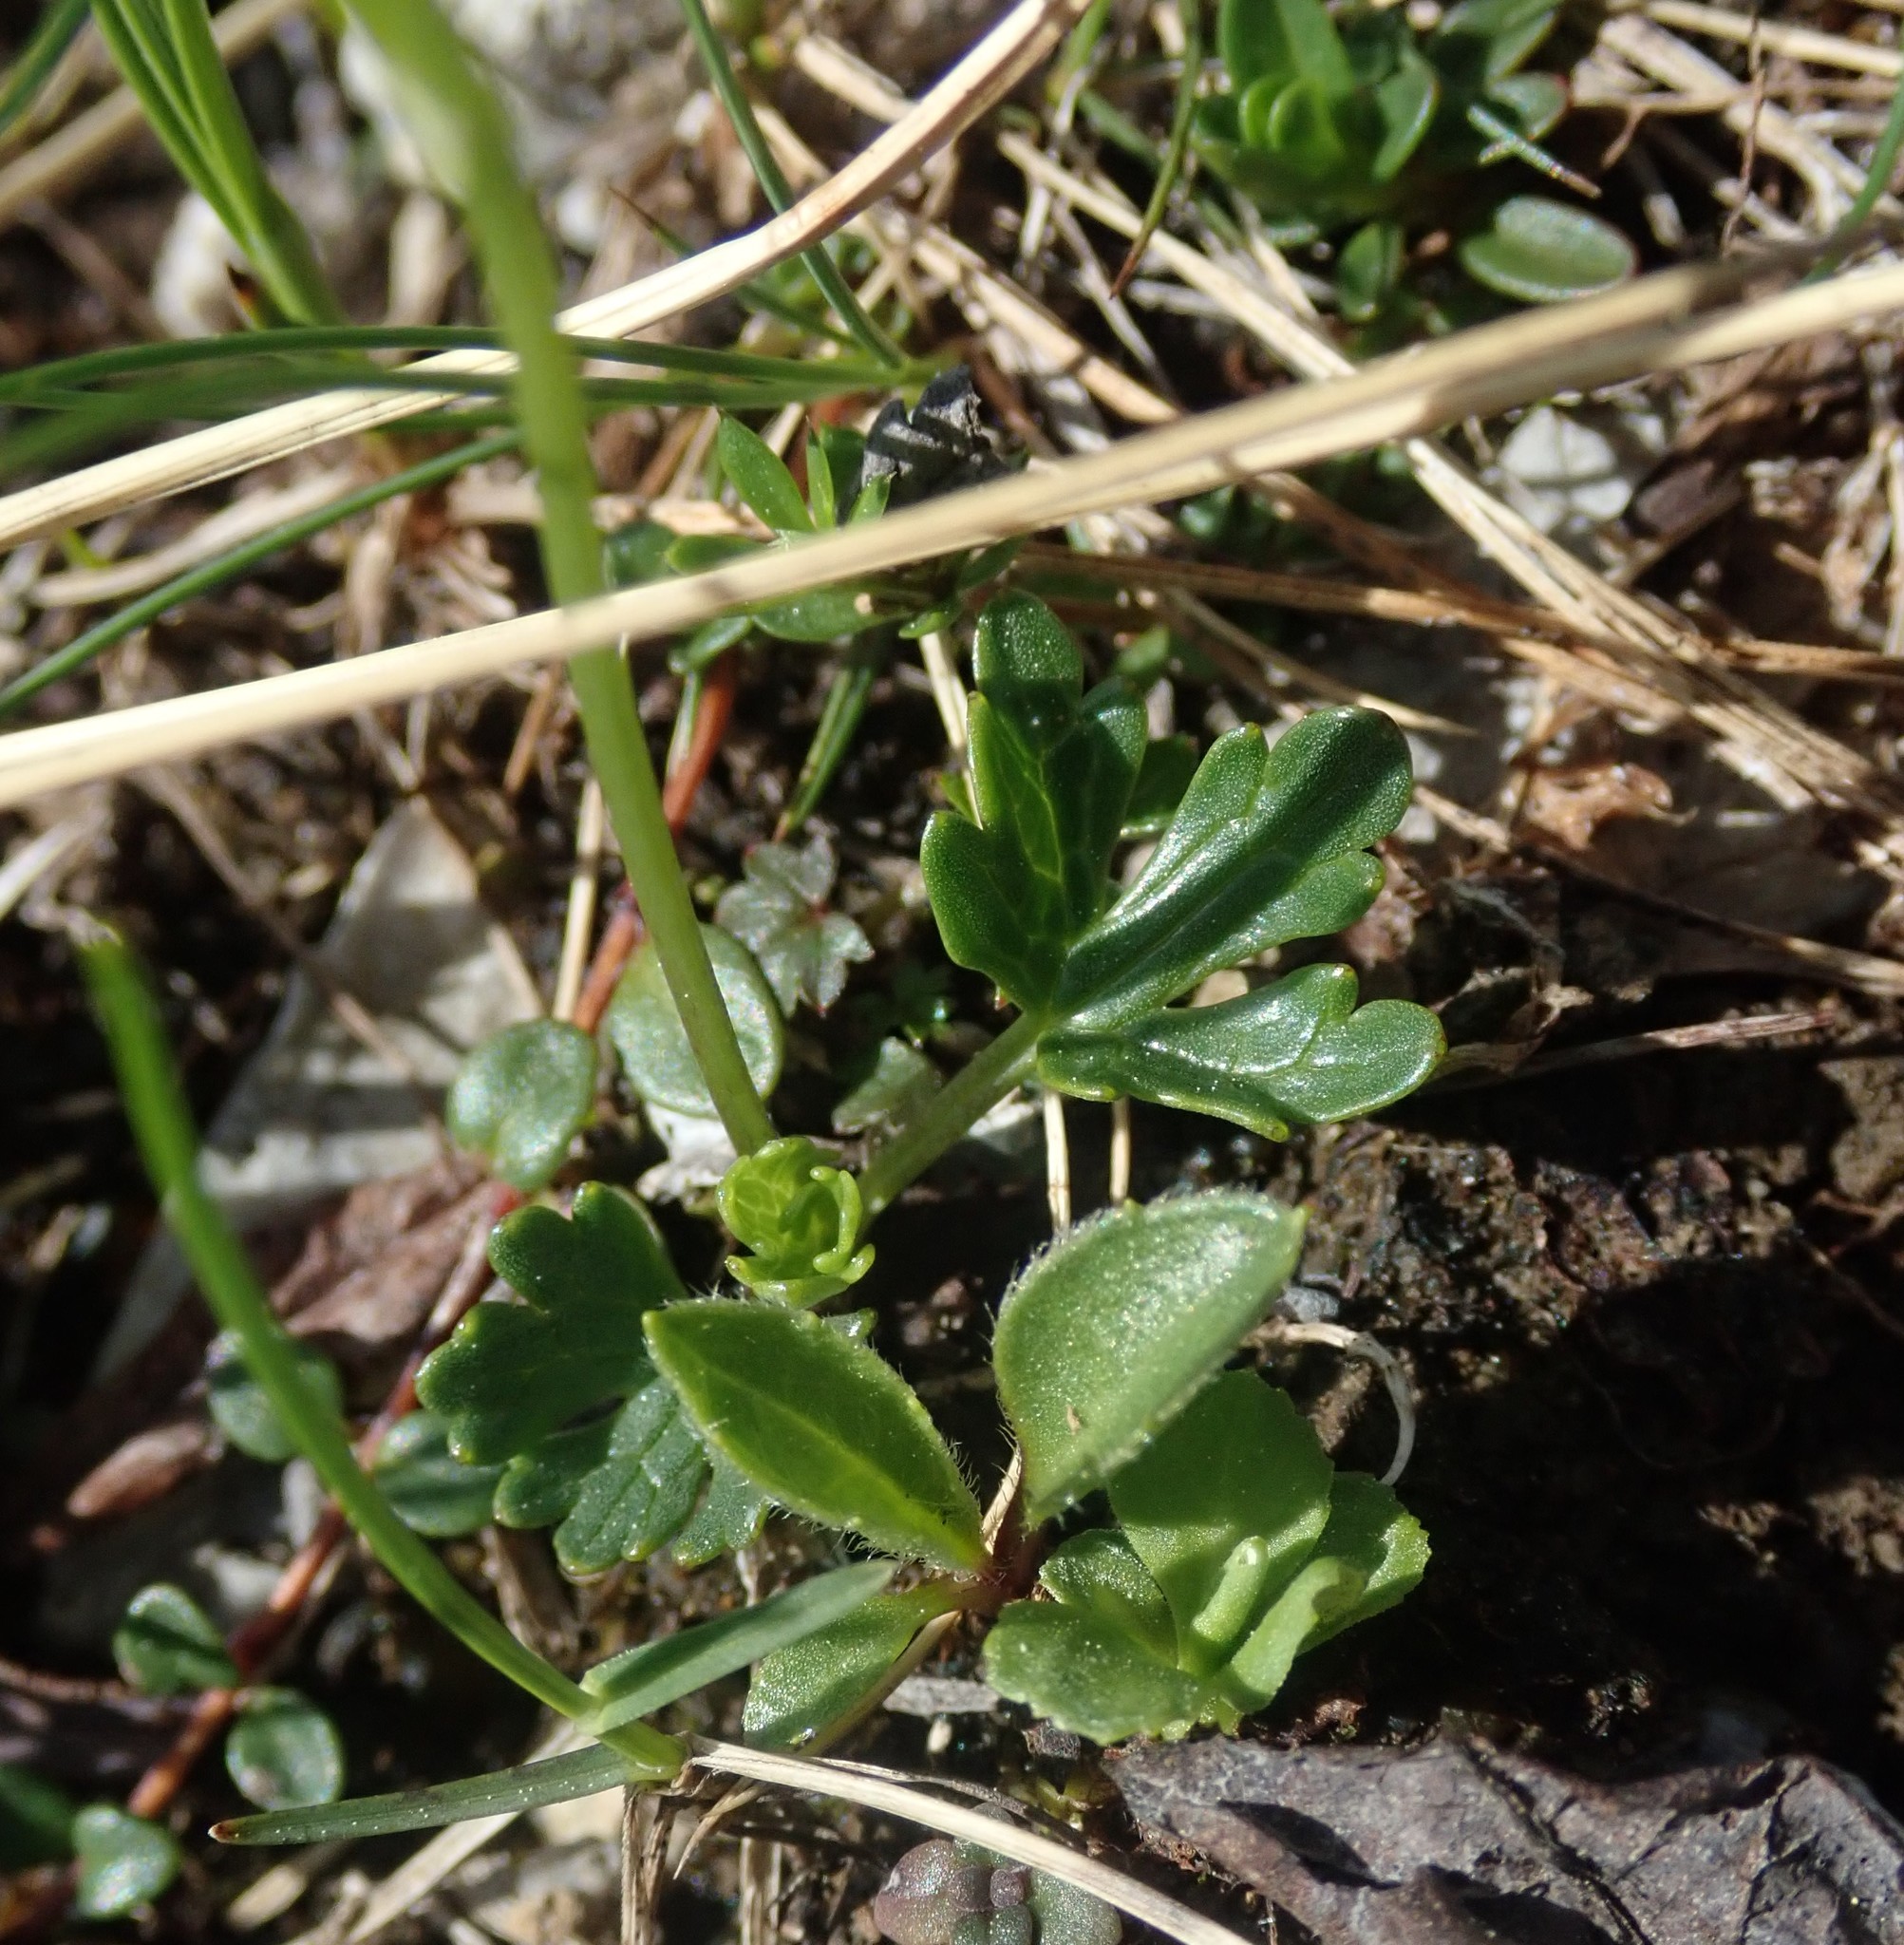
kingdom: Plantae
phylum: Tracheophyta
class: Magnoliopsida
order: Ranunculales
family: Ranunculaceae
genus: Ranunculus
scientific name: Ranunculus alpestris
